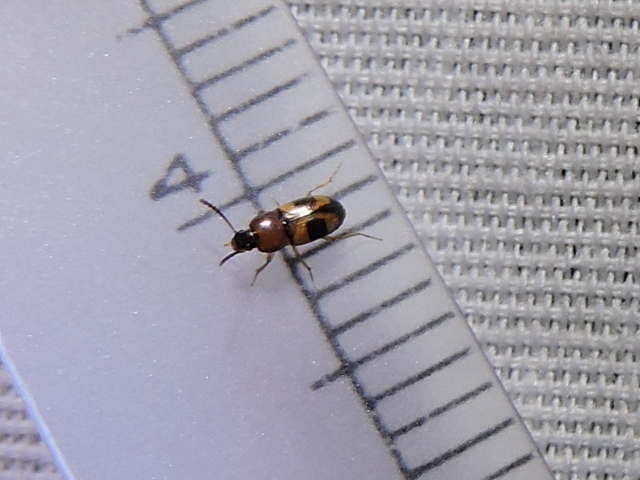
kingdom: Animalia
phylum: Arthropoda
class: Insecta
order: Coleoptera
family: Tenebrionidae
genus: Poecilocrypticus
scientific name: Poecilocrypticus formicophilus
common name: Darkling beetle
